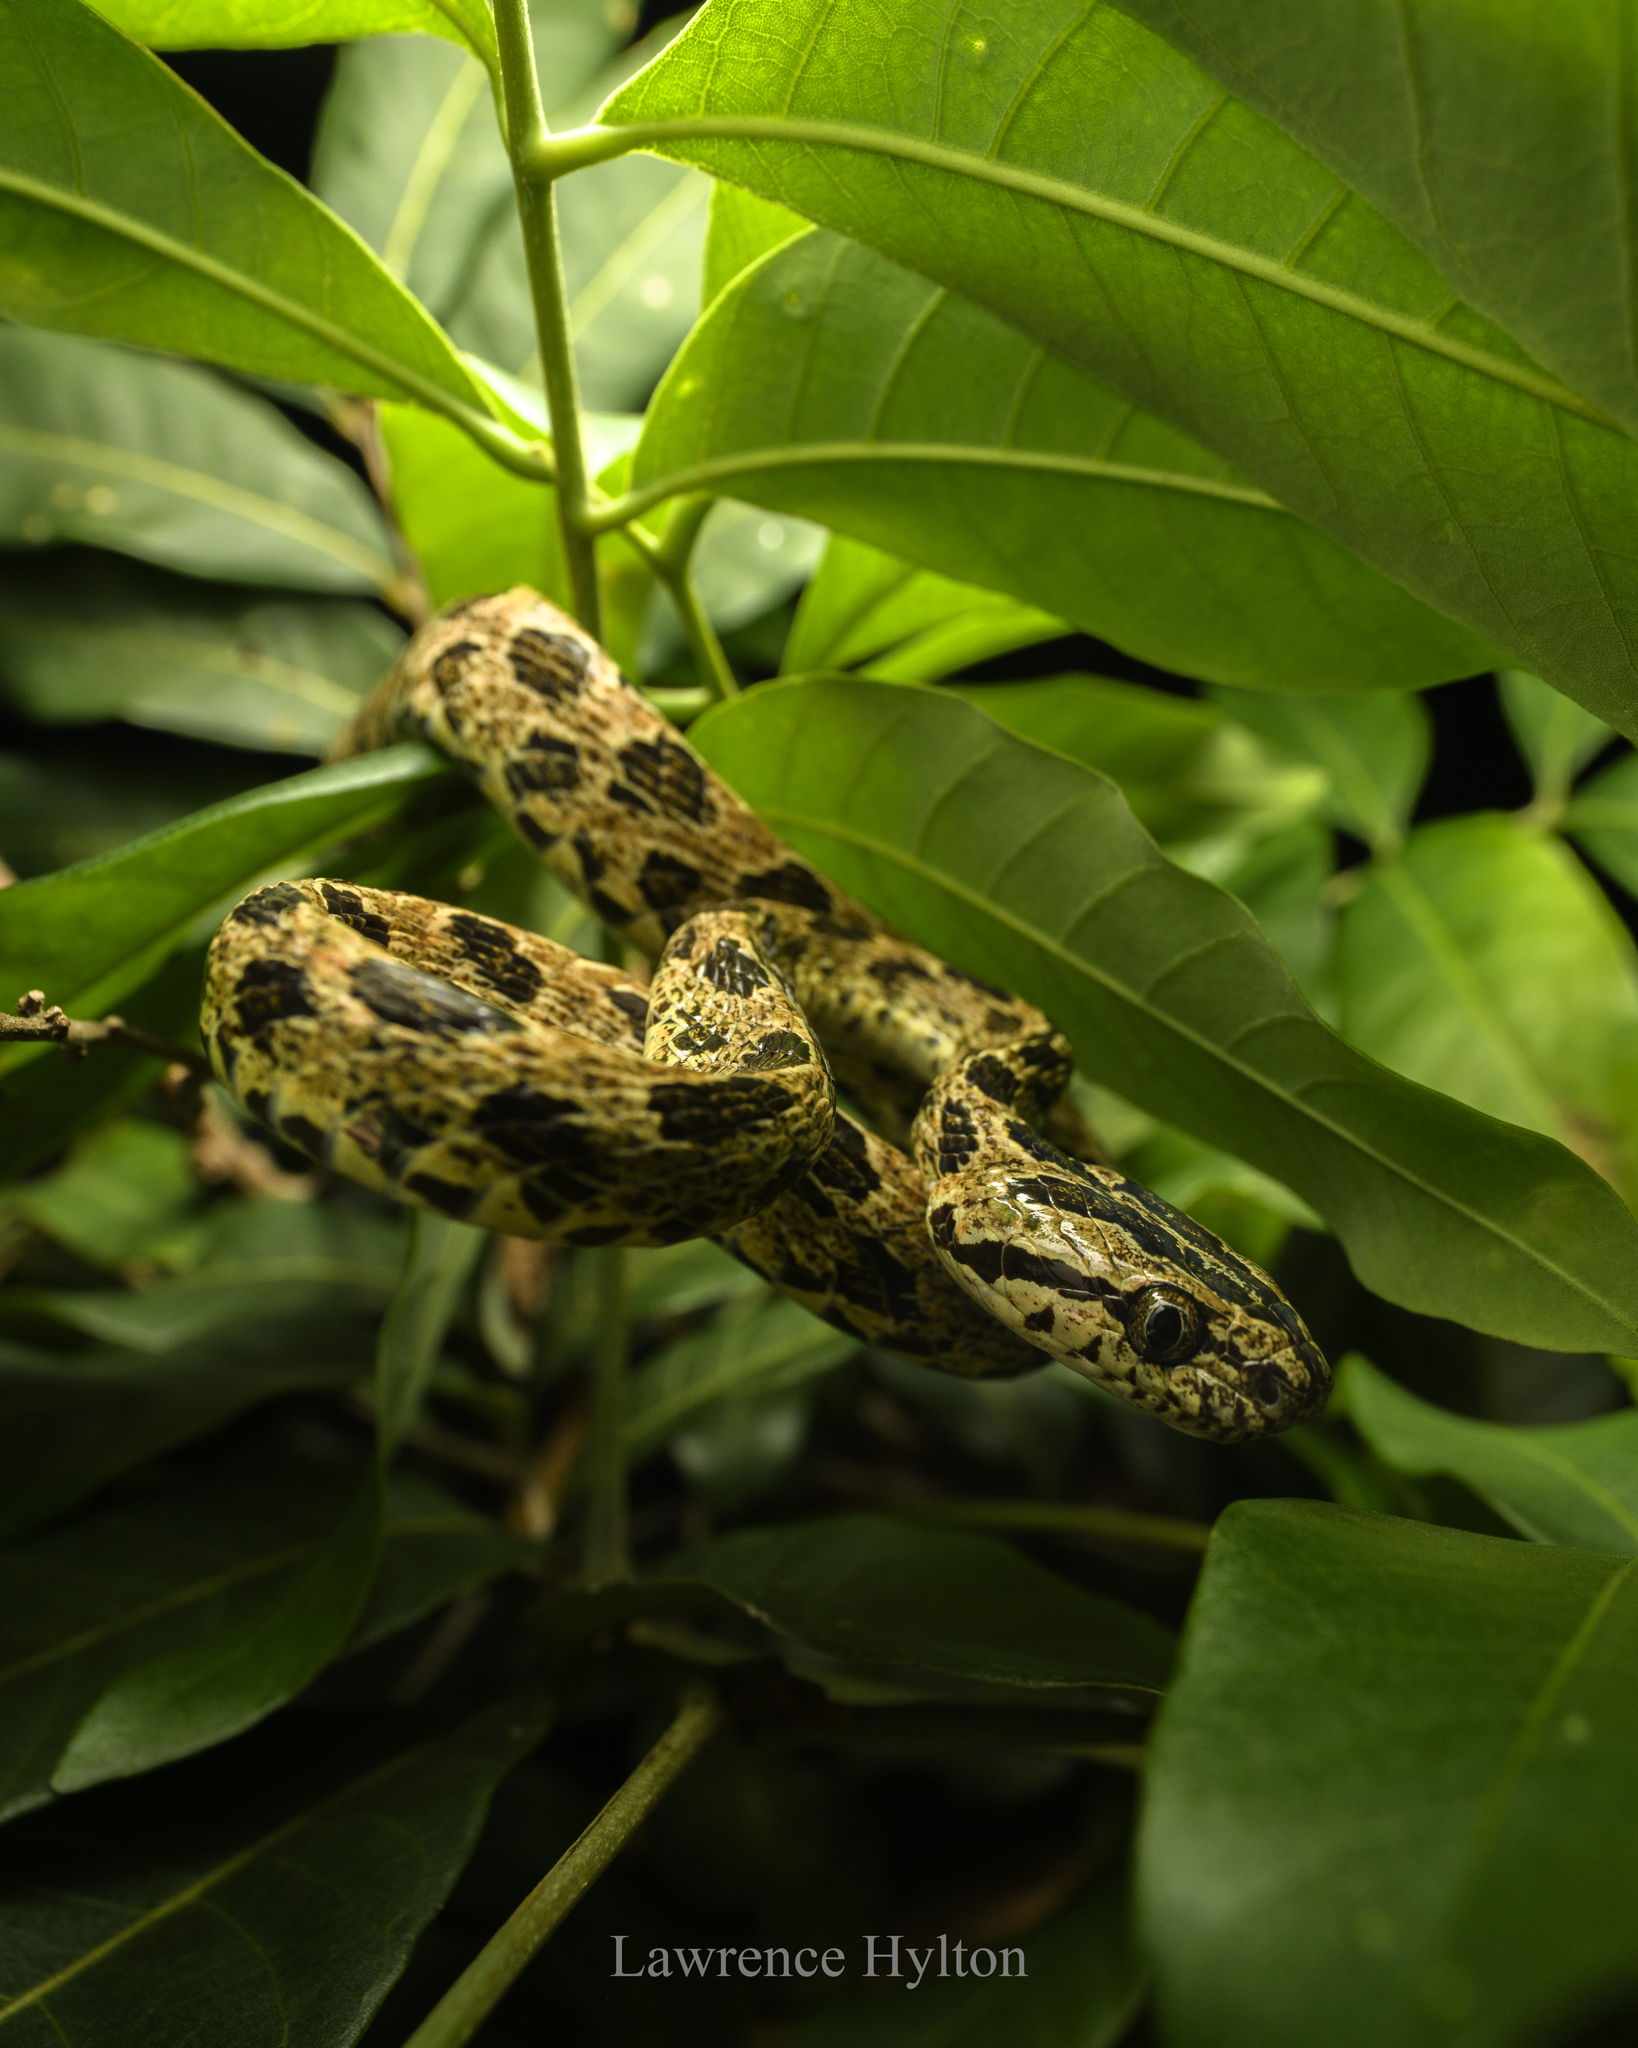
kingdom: Animalia
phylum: Chordata
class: Squamata
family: Colubridae
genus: Boiga
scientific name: Boiga multomaculata
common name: Many-spotted cat snake
